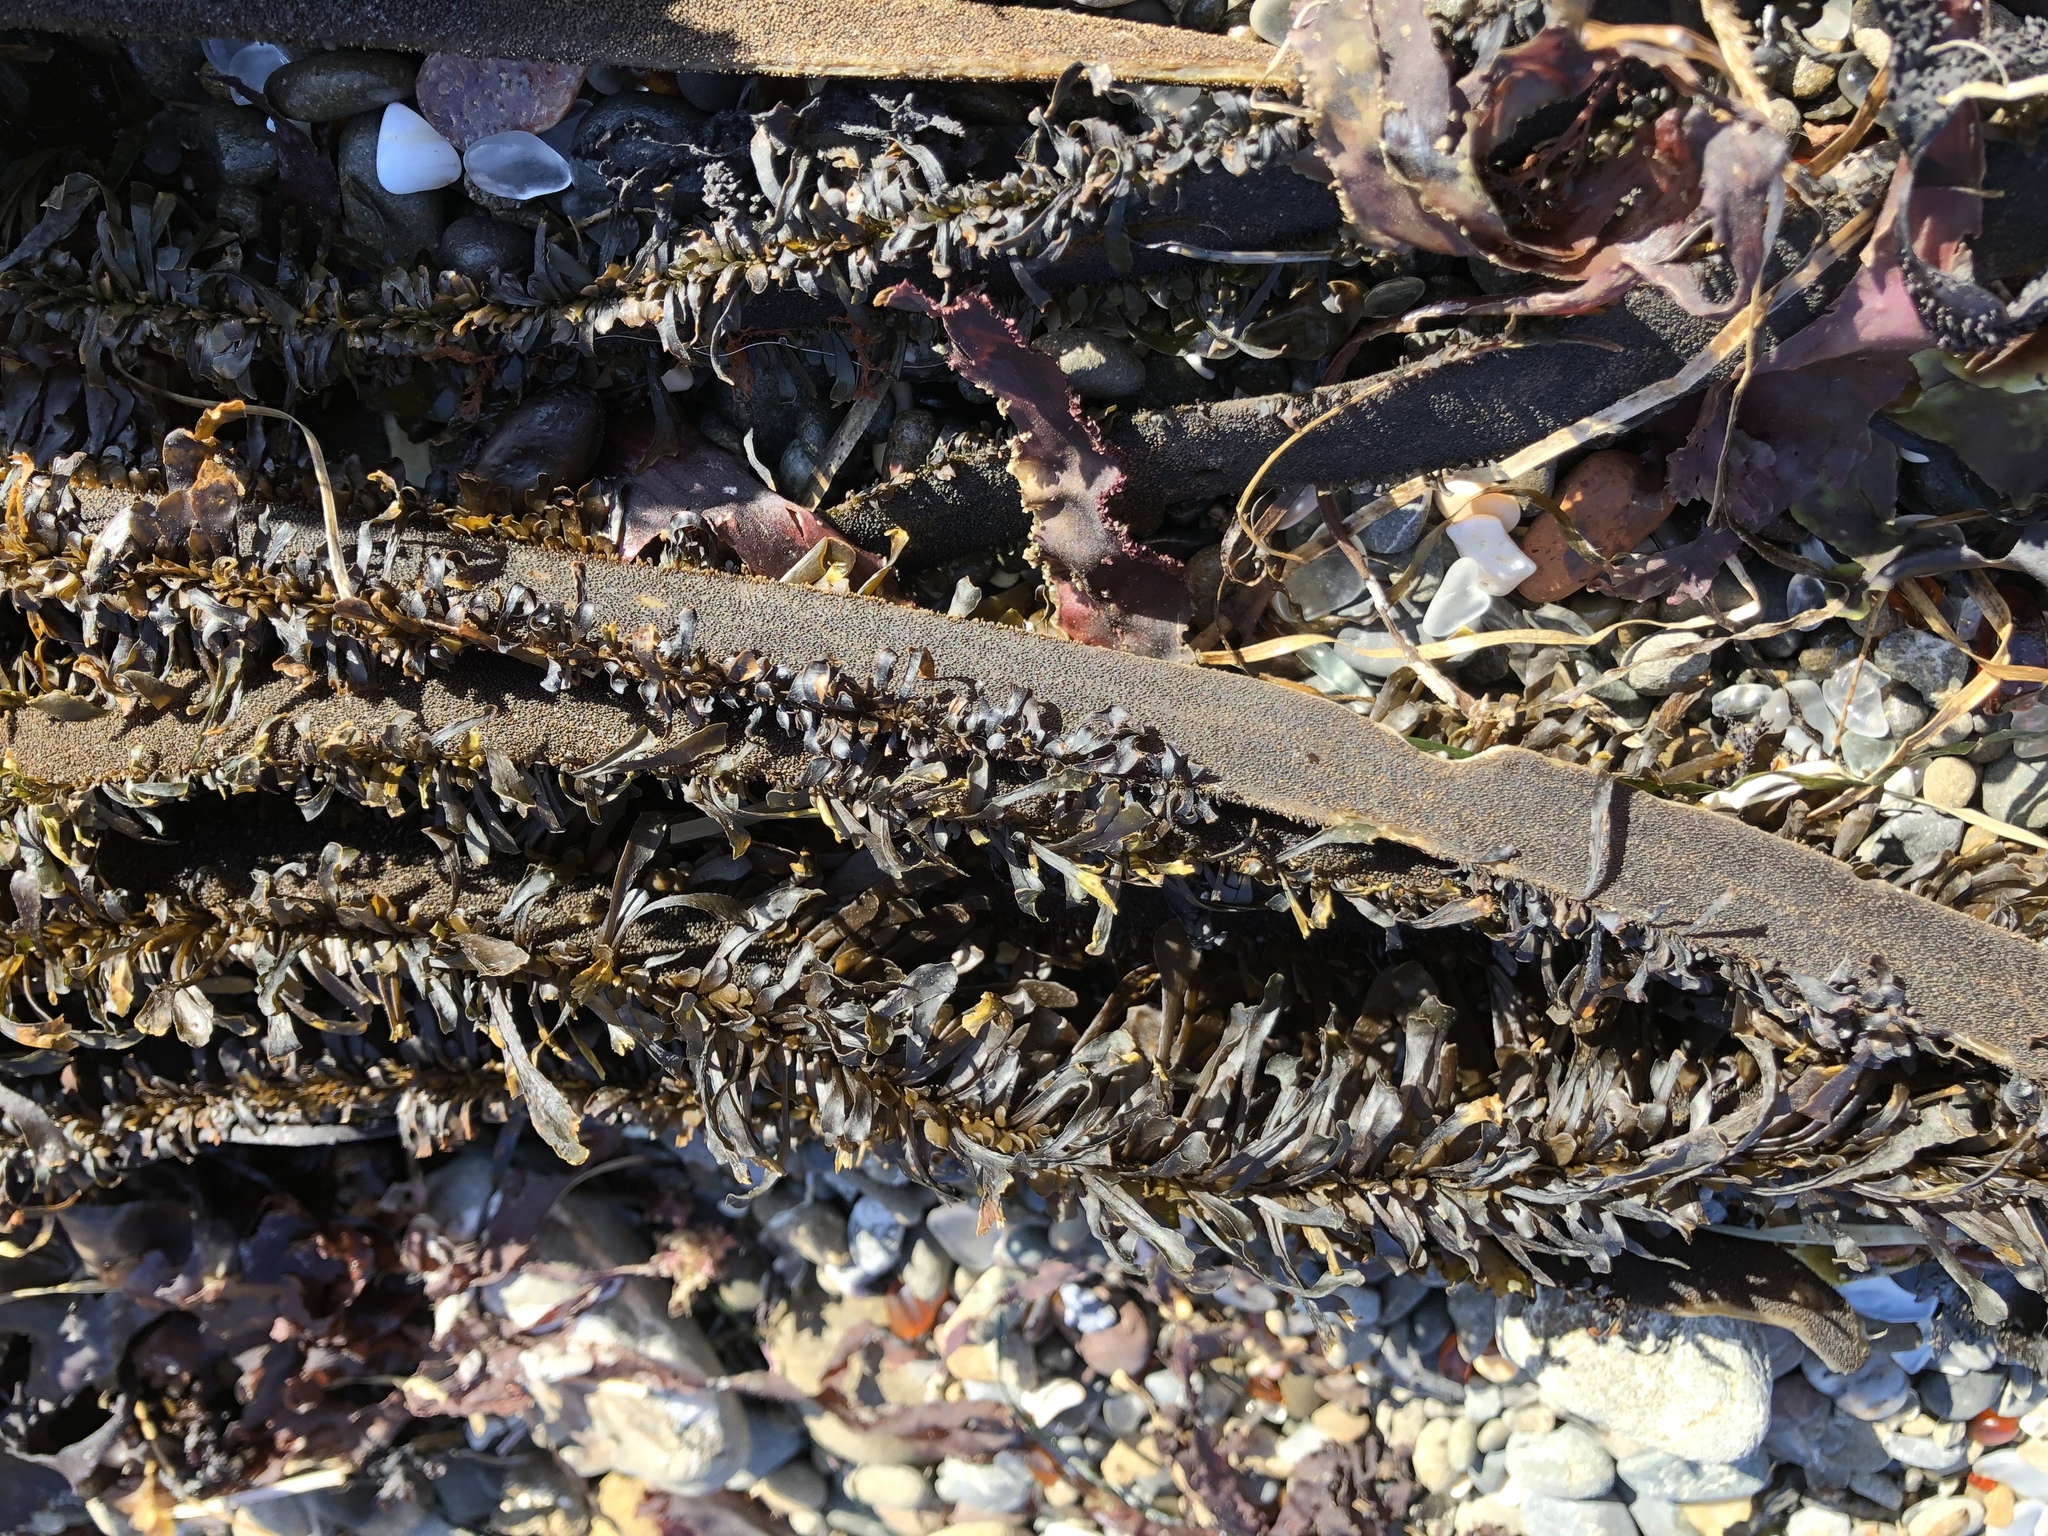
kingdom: Chromista
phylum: Ochrophyta
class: Phaeophyceae
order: Laminariales
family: Lessoniaceae
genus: Egregia
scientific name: Egregia menziesii
